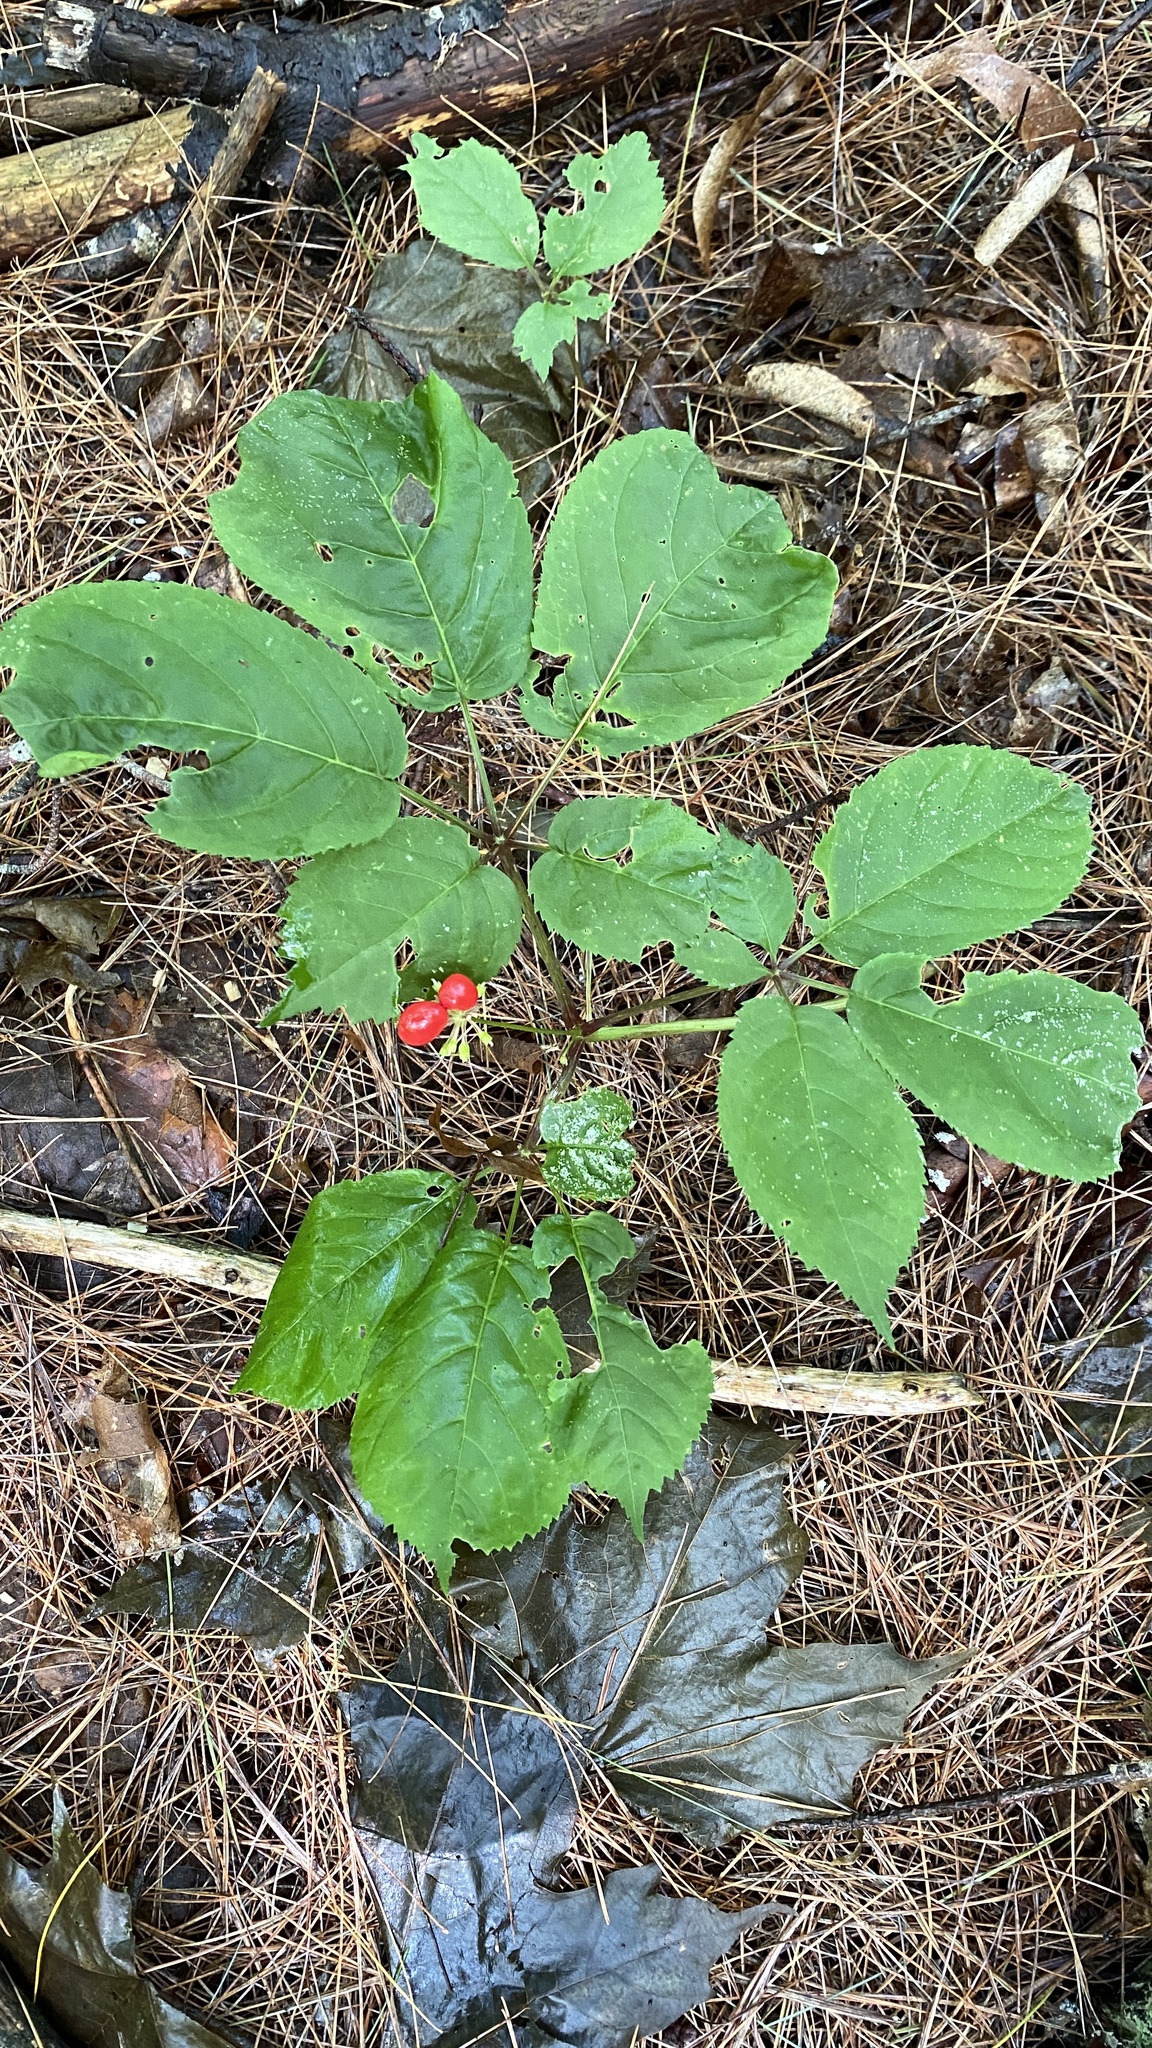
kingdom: Plantae
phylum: Tracheophyta
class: Magnoliopsida
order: Apiales
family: Araliaceae
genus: Panax
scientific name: Panax quinquefolius
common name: American ginseng
